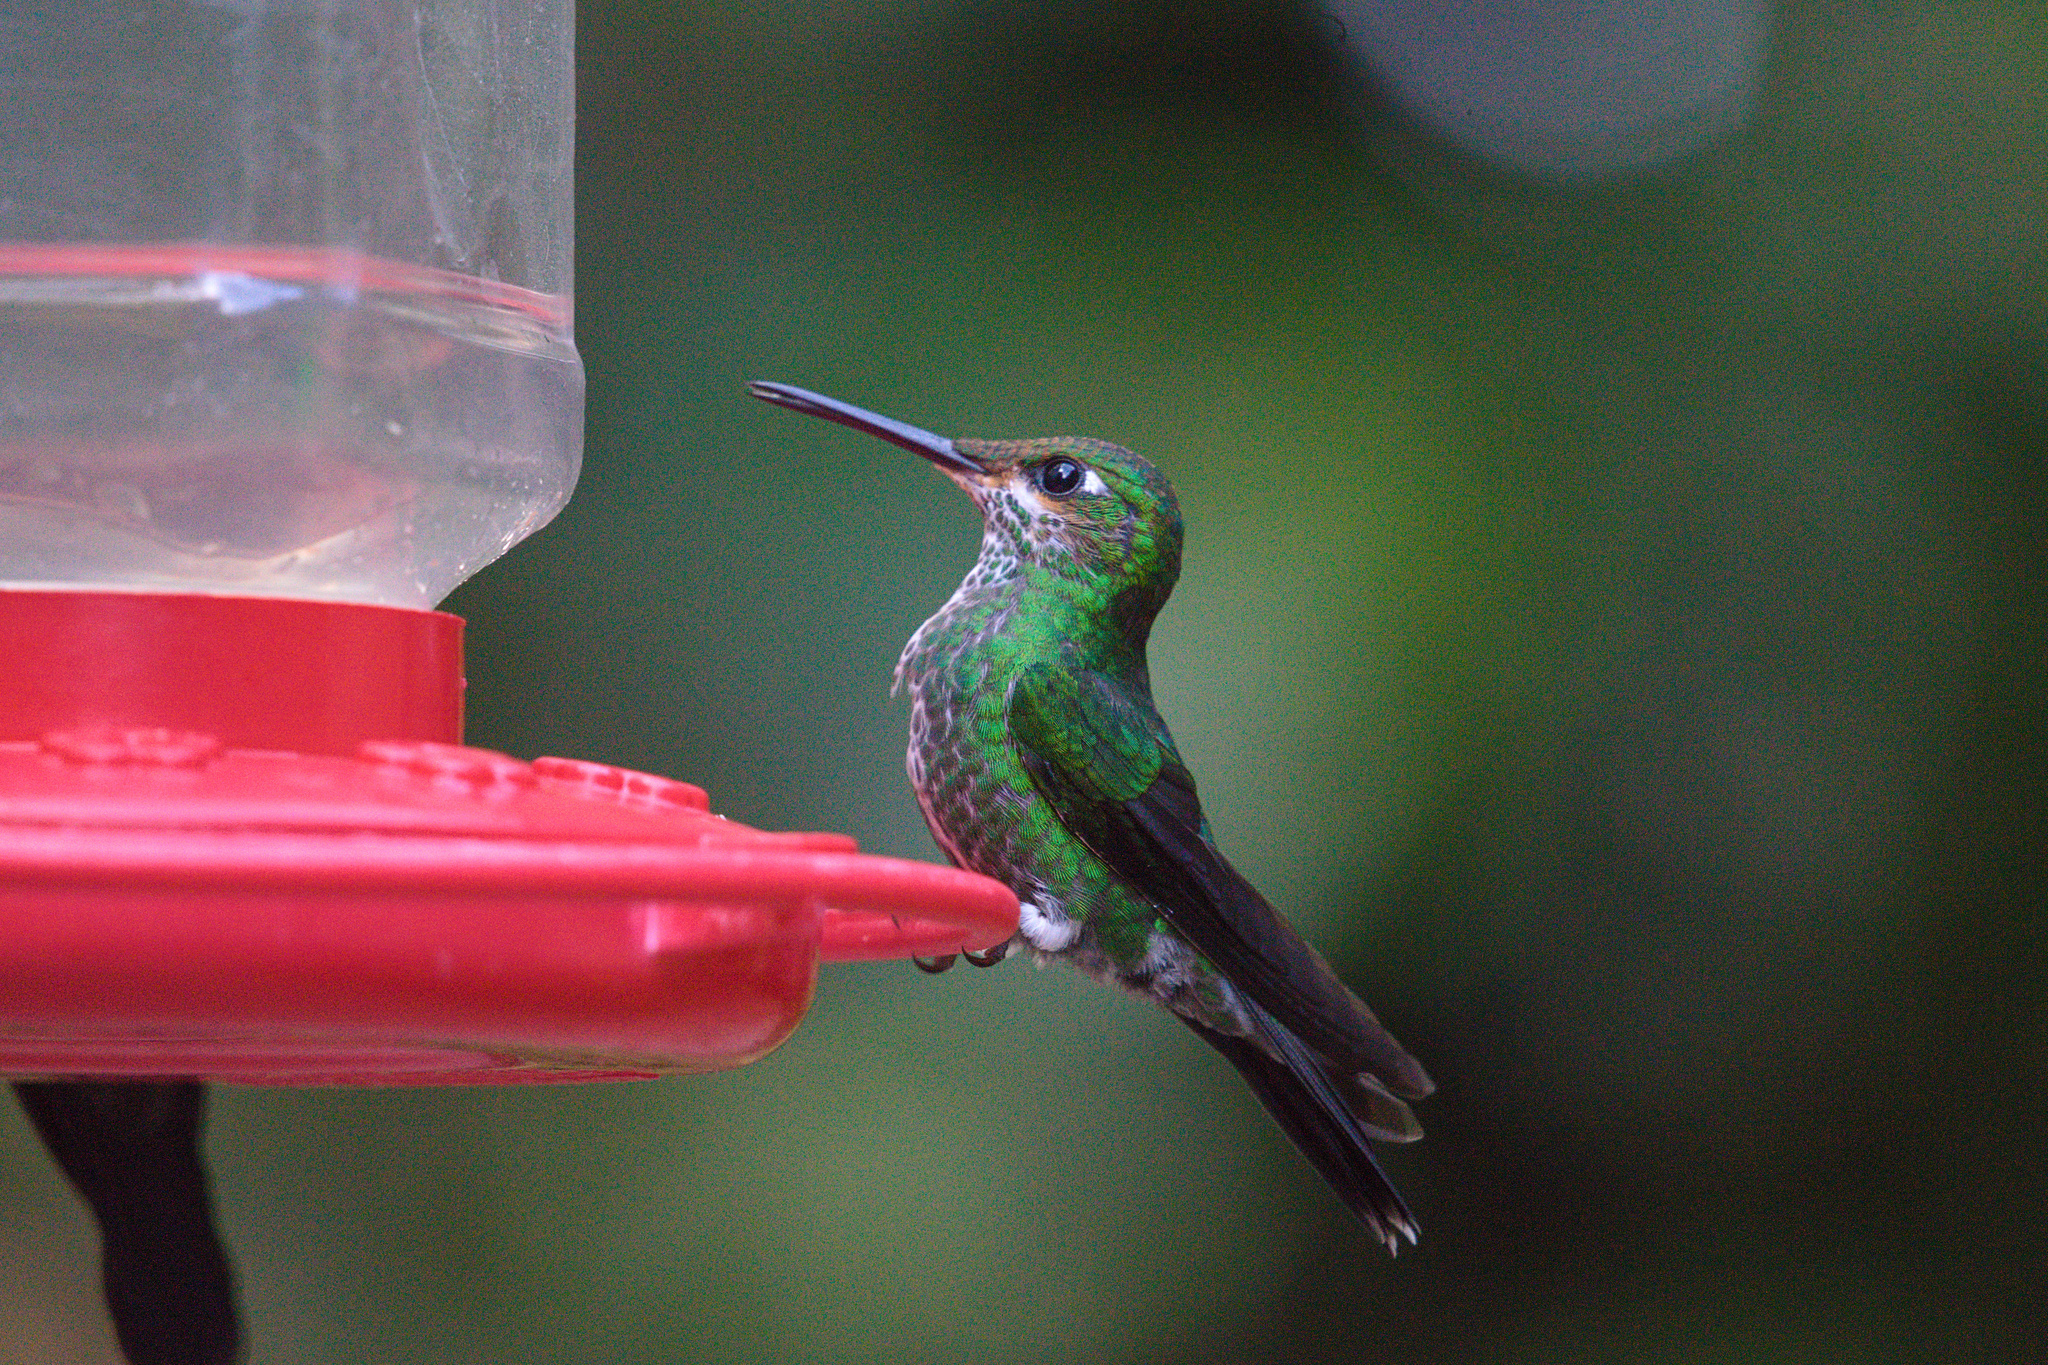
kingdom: Animalia
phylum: Chordata
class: Aves
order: Apodiformes
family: Trochilidae
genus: Heliodoxa
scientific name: Heliodoxa jacula
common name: Green-crowned brilliant
